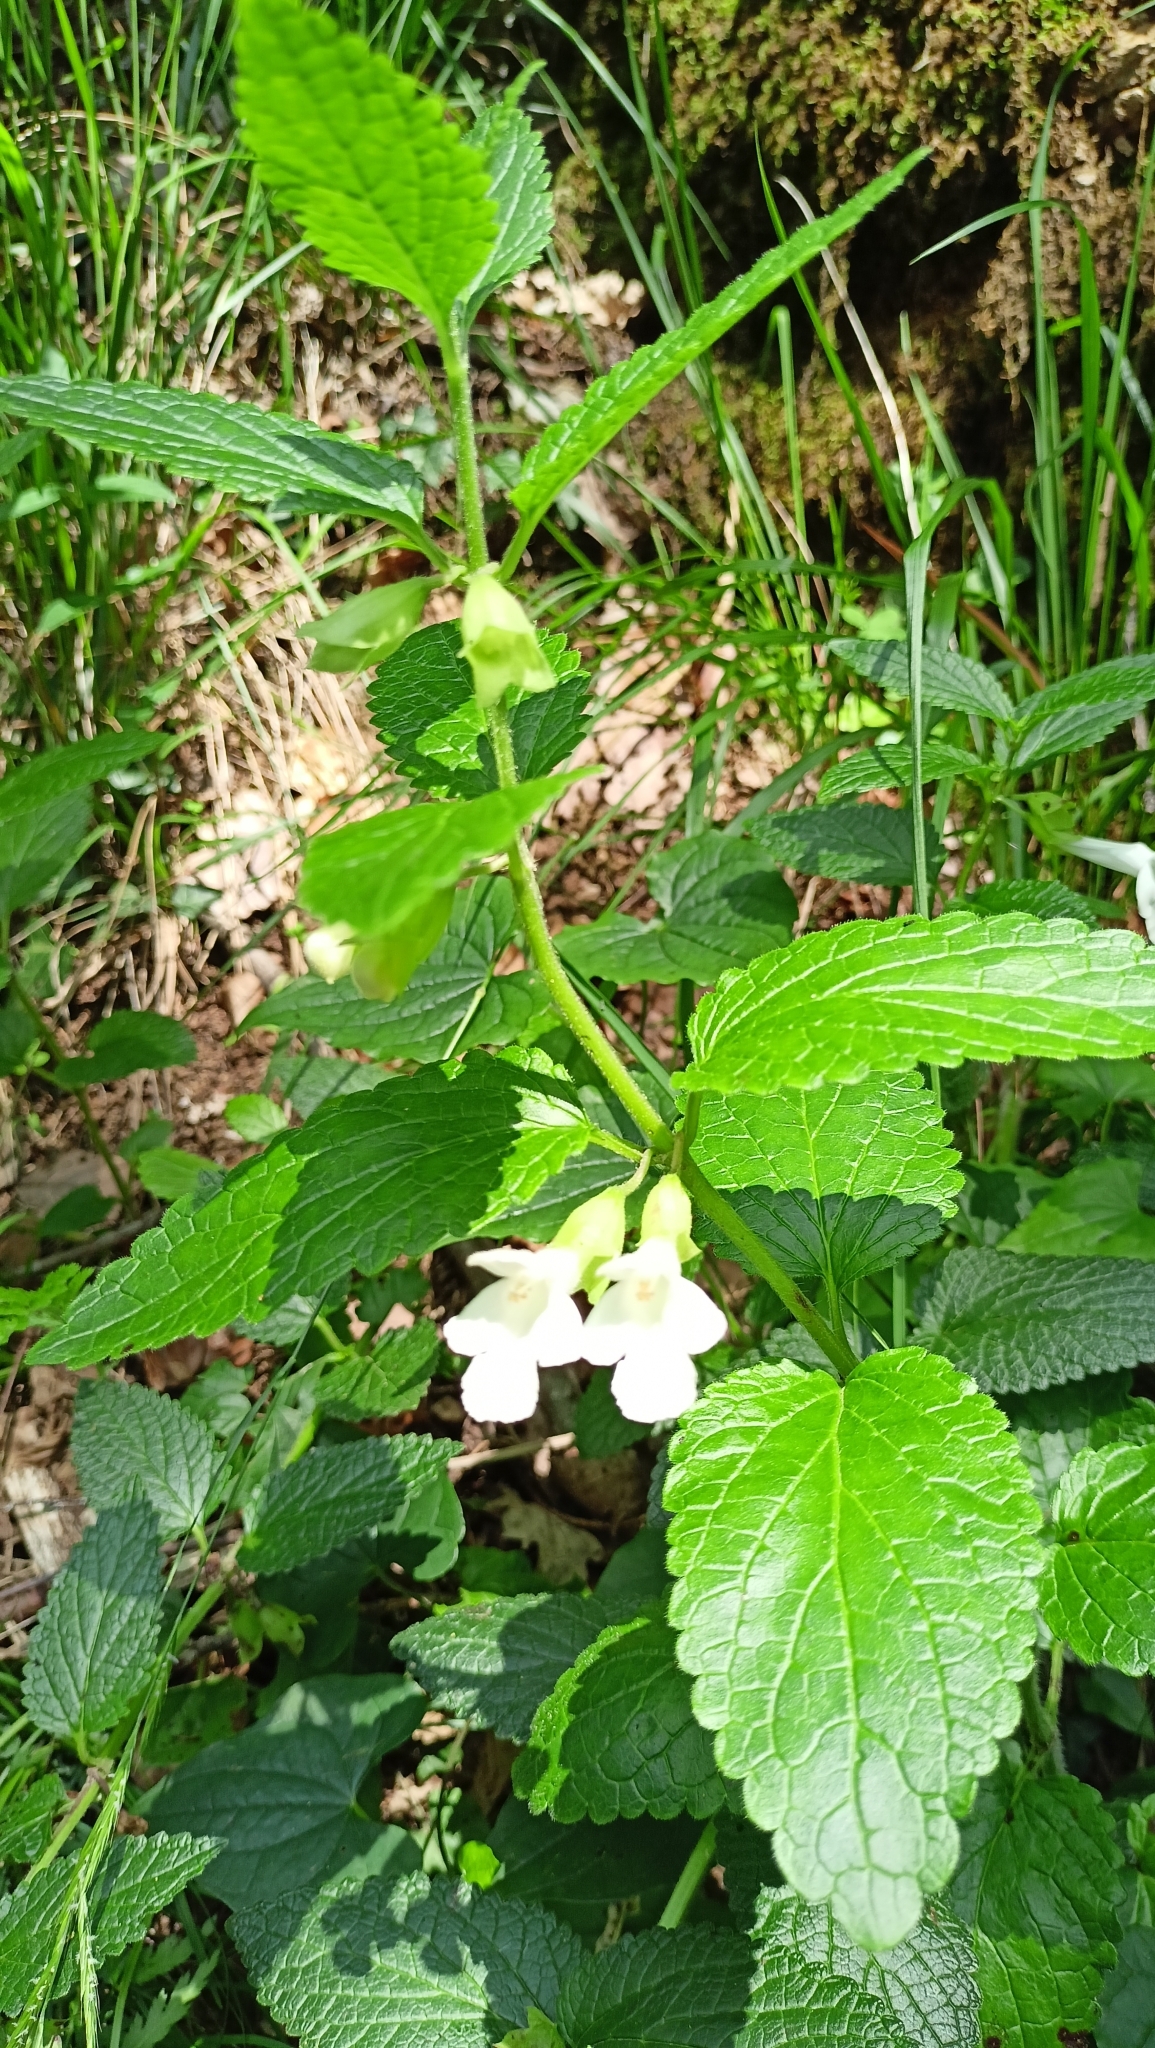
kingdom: Plantae
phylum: Tracheophyta
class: Magnoliopsida
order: Lamiales
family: Lamiaceae
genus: Melittis
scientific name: Melittis melissophyllum
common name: Bastard balm
